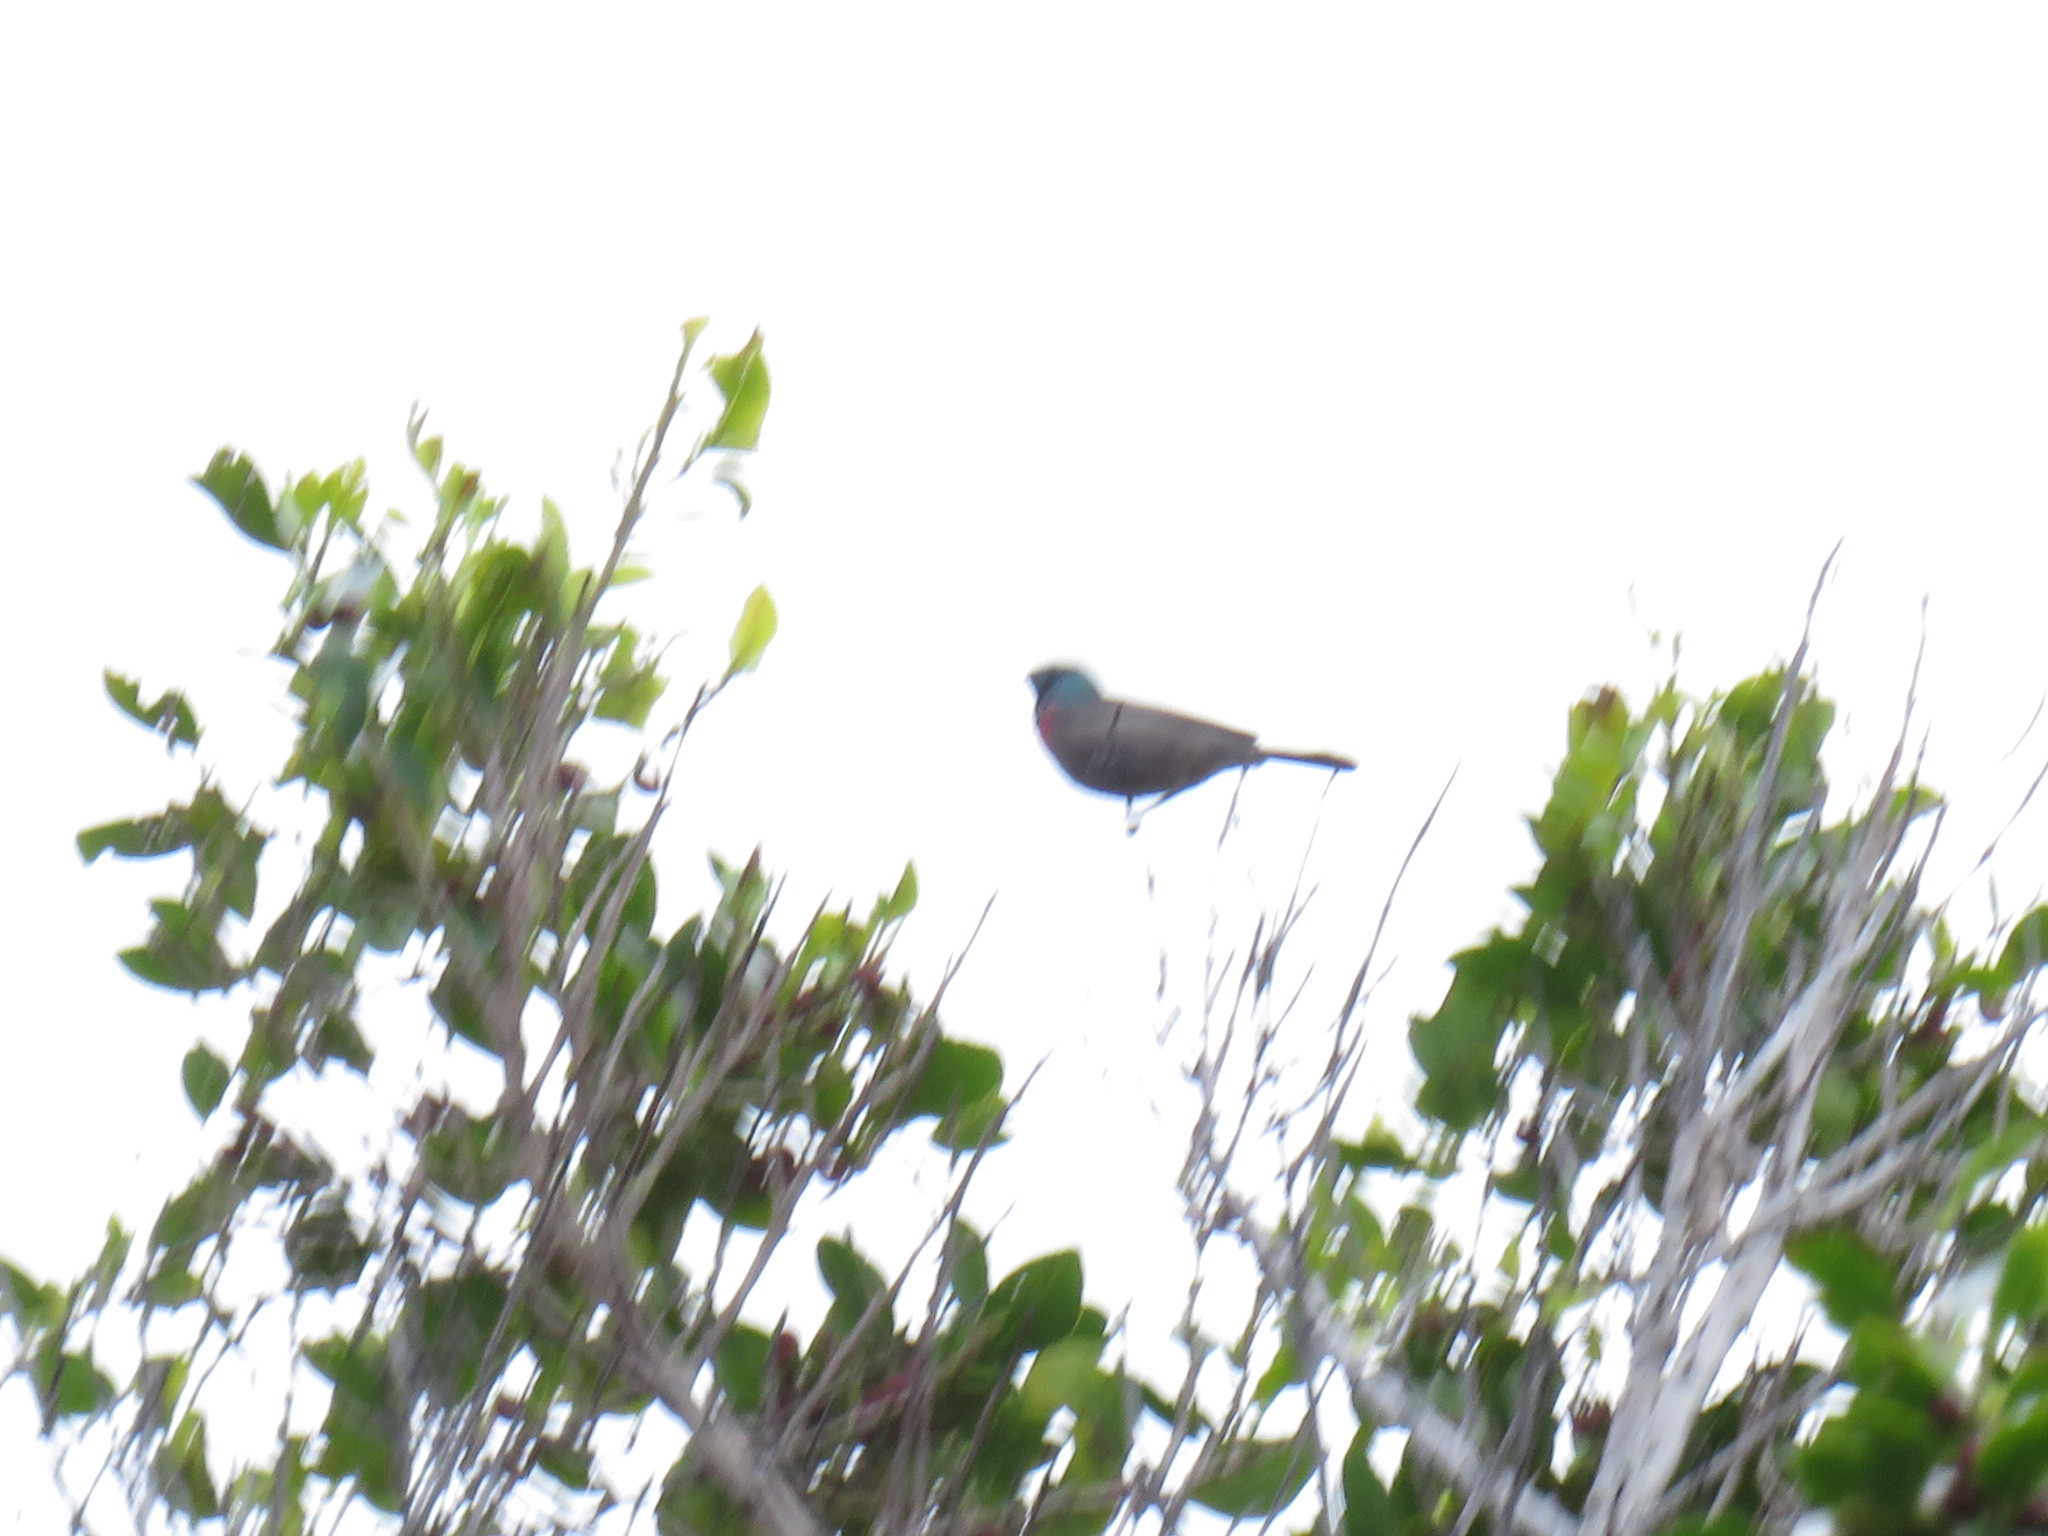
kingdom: Animalia
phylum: Chordata
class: Aves
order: Passeriformes
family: Nectariniidae
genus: Cinnyris
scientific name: Cinnyris chalybeus
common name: Southern double-collared sunbird
